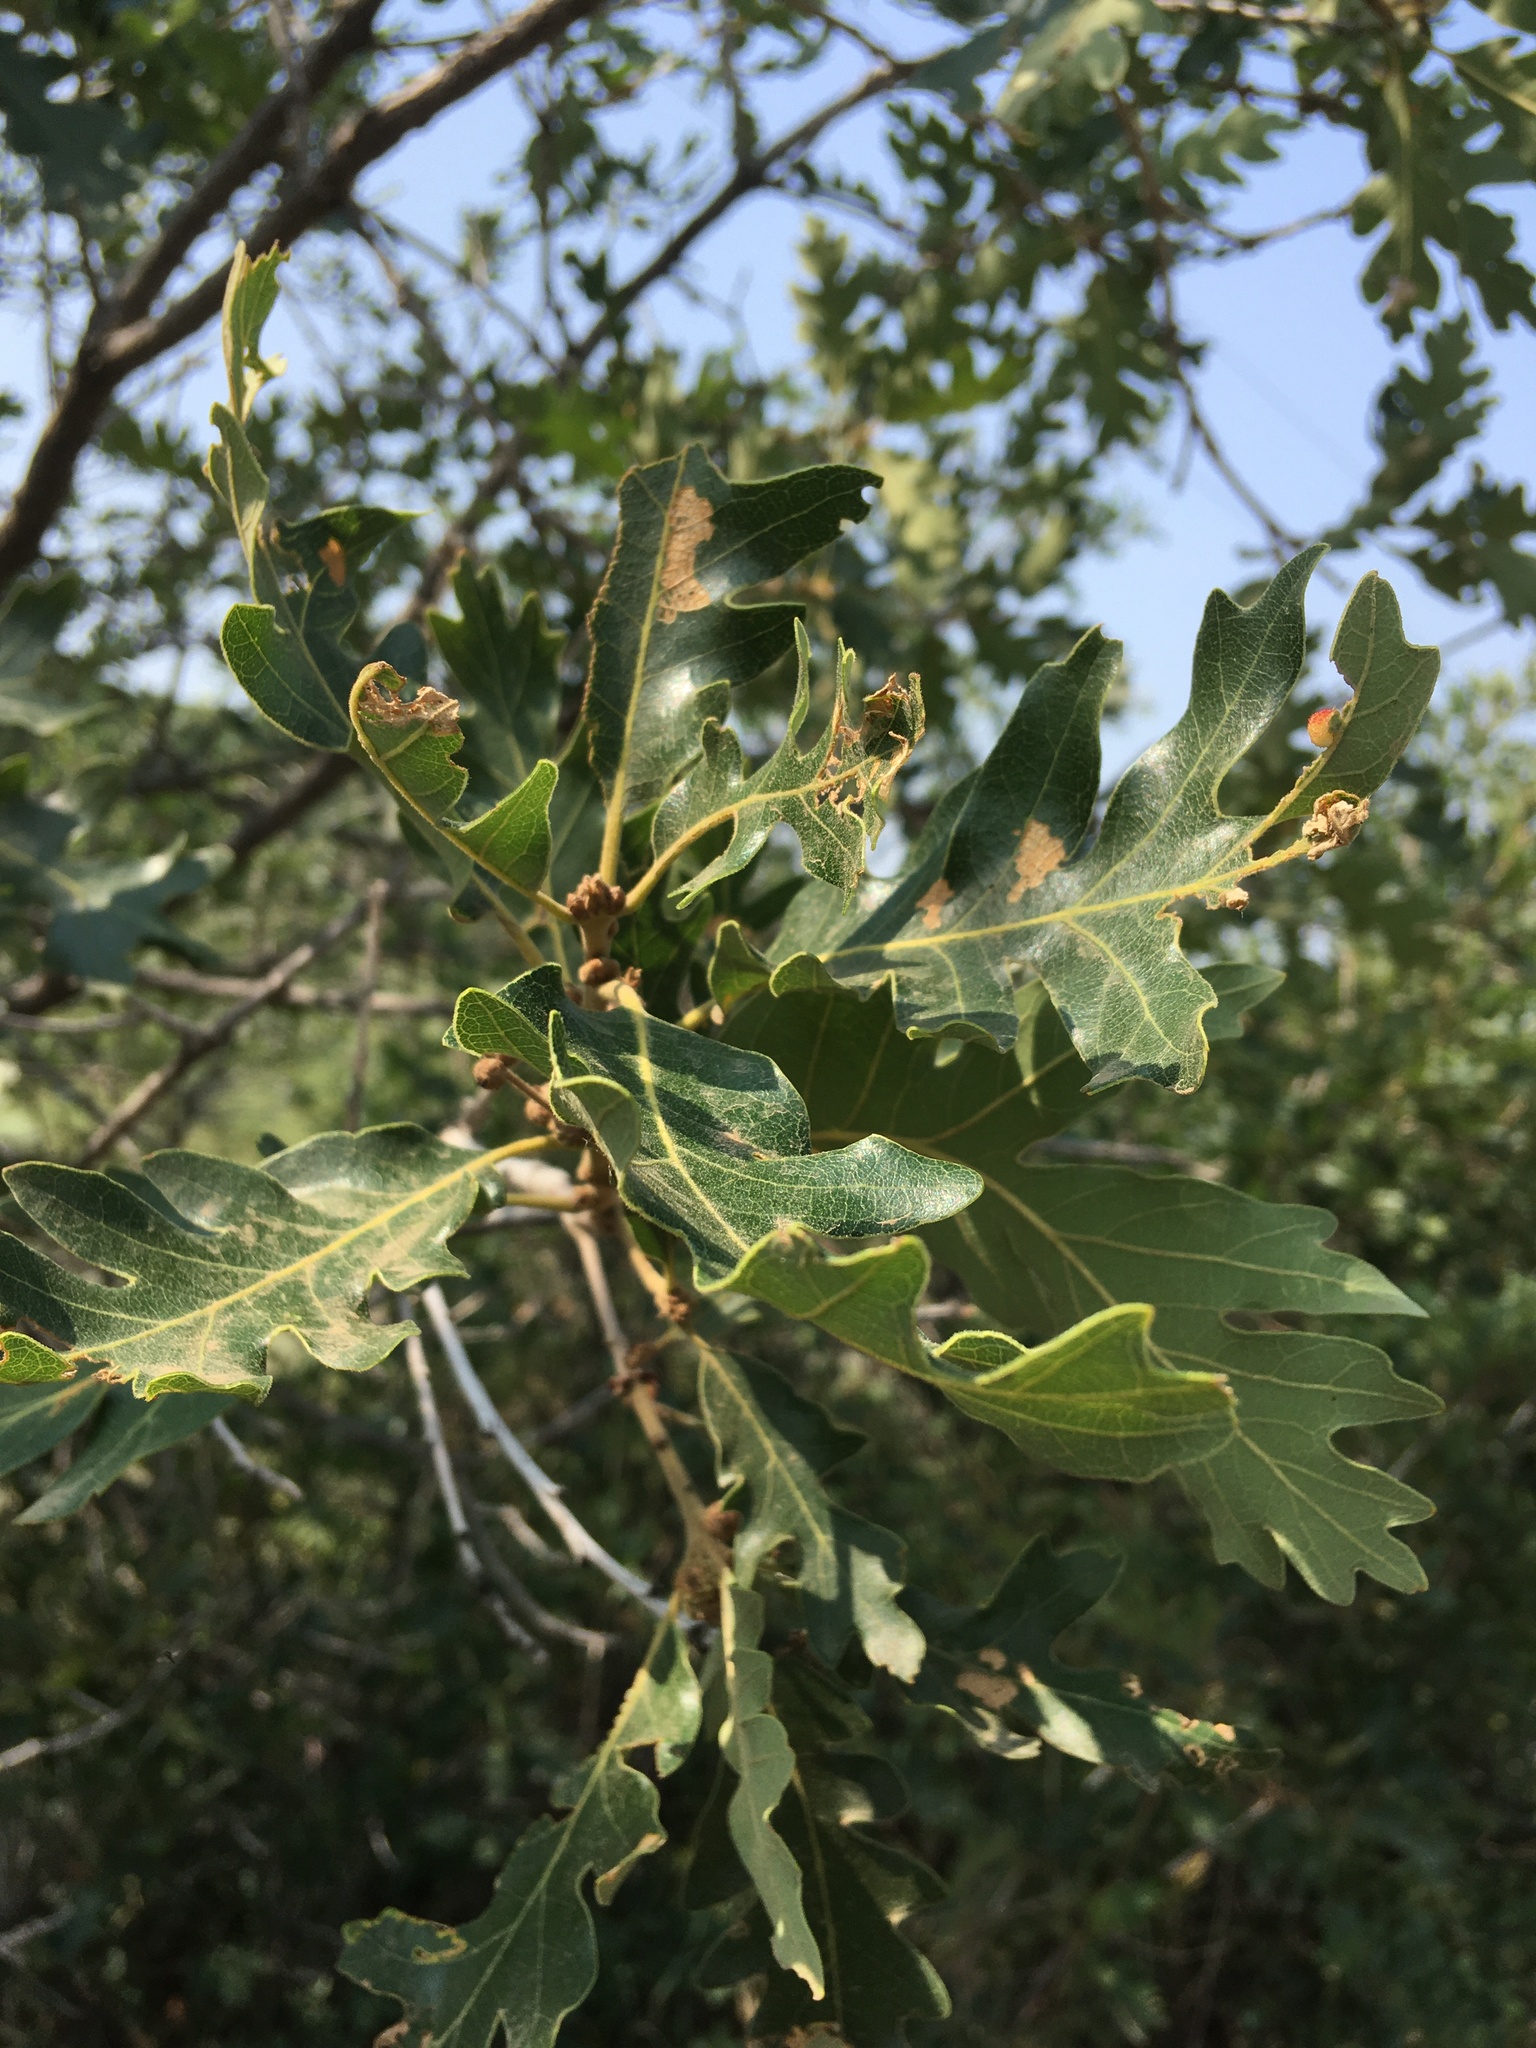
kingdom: Plantae
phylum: Tracheophyta
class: Magnoliopsida
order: Fagales
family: Fagaceae
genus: Quercus
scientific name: Quercus gambelii
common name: Gambel oak
